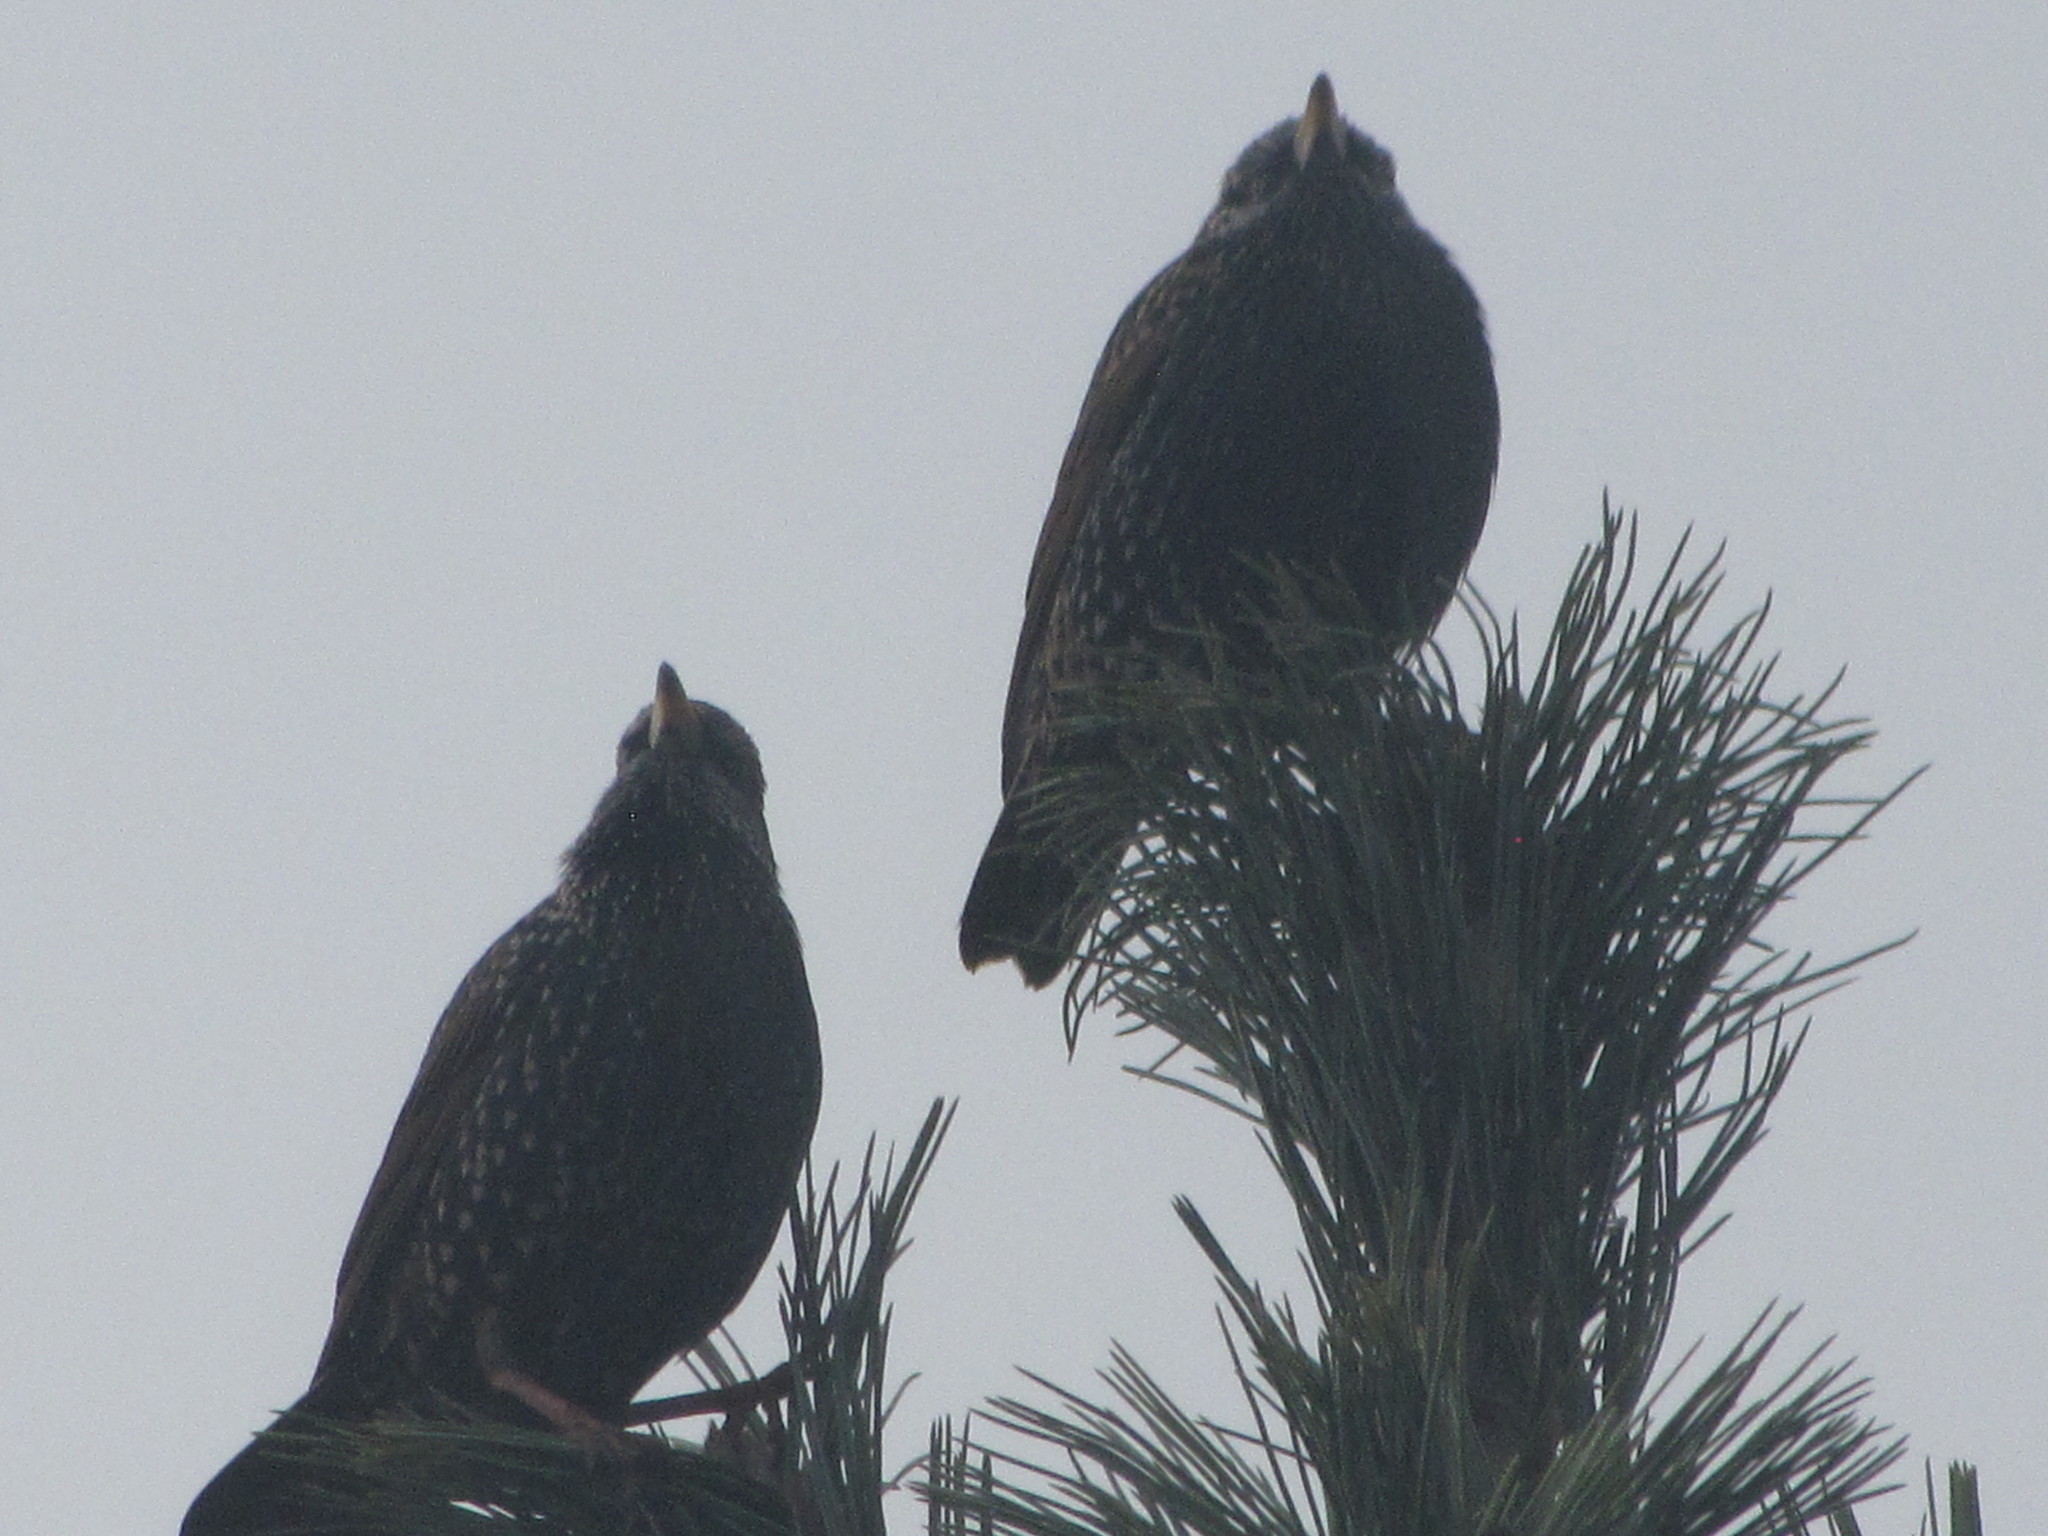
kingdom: Animalia
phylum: Chordata
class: Aves
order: Passeriformes
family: Sturnidae
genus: Sturnus
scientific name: Sturnus vulgaris
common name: Common starling
